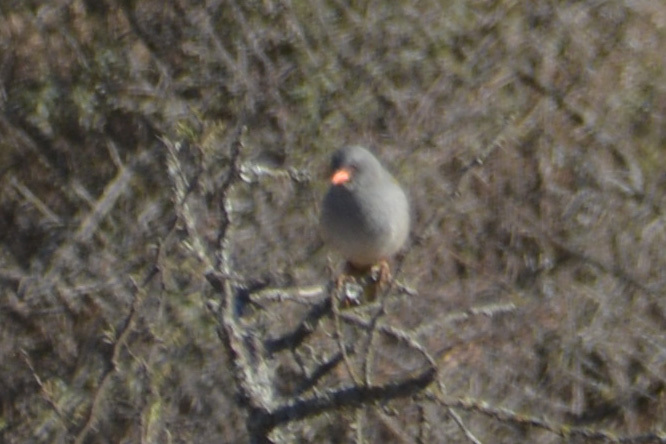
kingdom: Animalia
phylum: Chordata
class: Aves
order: Passeriformes
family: Thraupidae
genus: Embernagra
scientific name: Embernagra platensis
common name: Pampa finch
